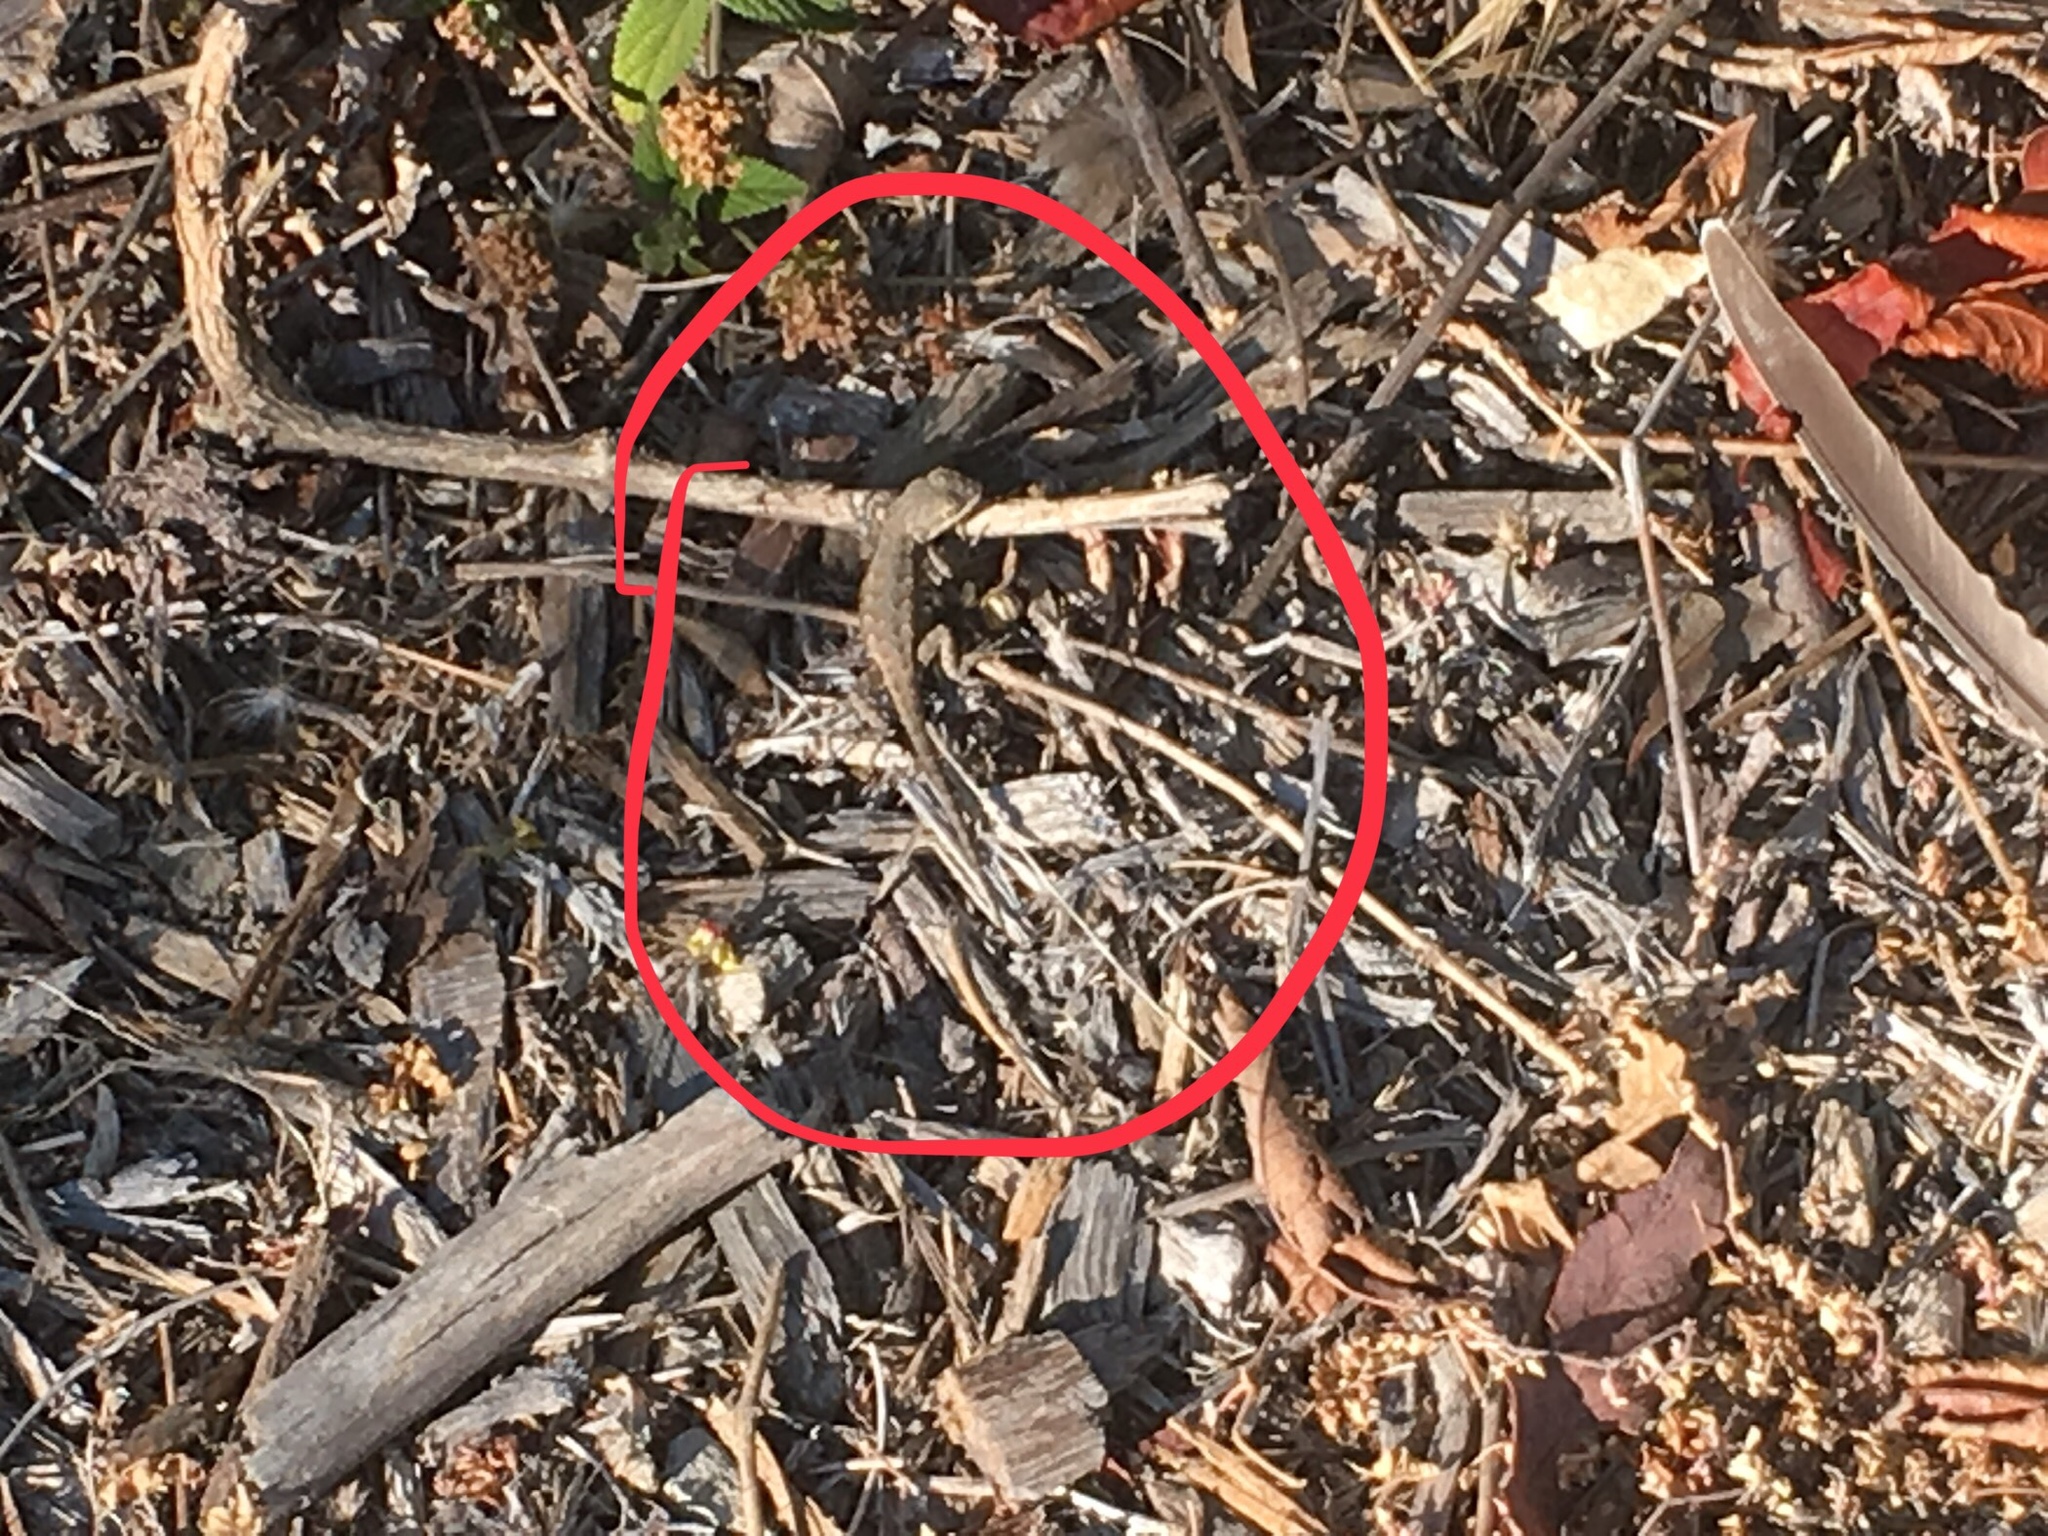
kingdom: Animalia
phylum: Chordata
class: Squamata
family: Phrynosomatidae
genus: Sceloporus
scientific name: Sceloporus occidentalis
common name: Western fence lizard
